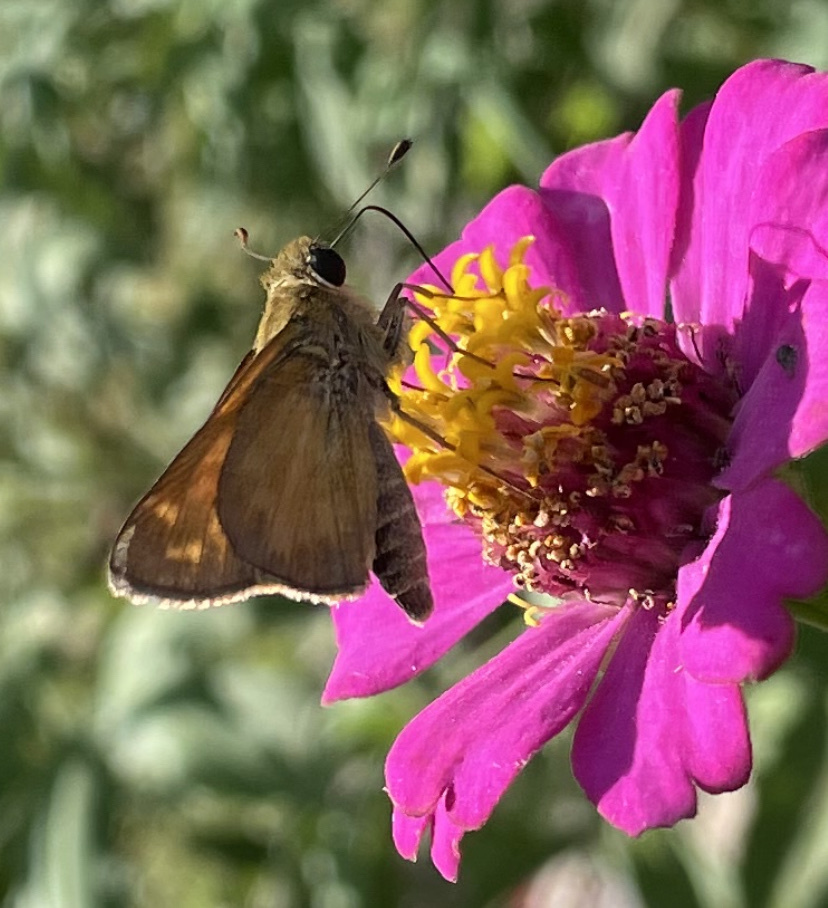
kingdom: Animalia
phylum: Arthropoda
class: Insecta
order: Lepidoptera
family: Hesperiidae
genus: Atalopedes
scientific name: Atalopedes
